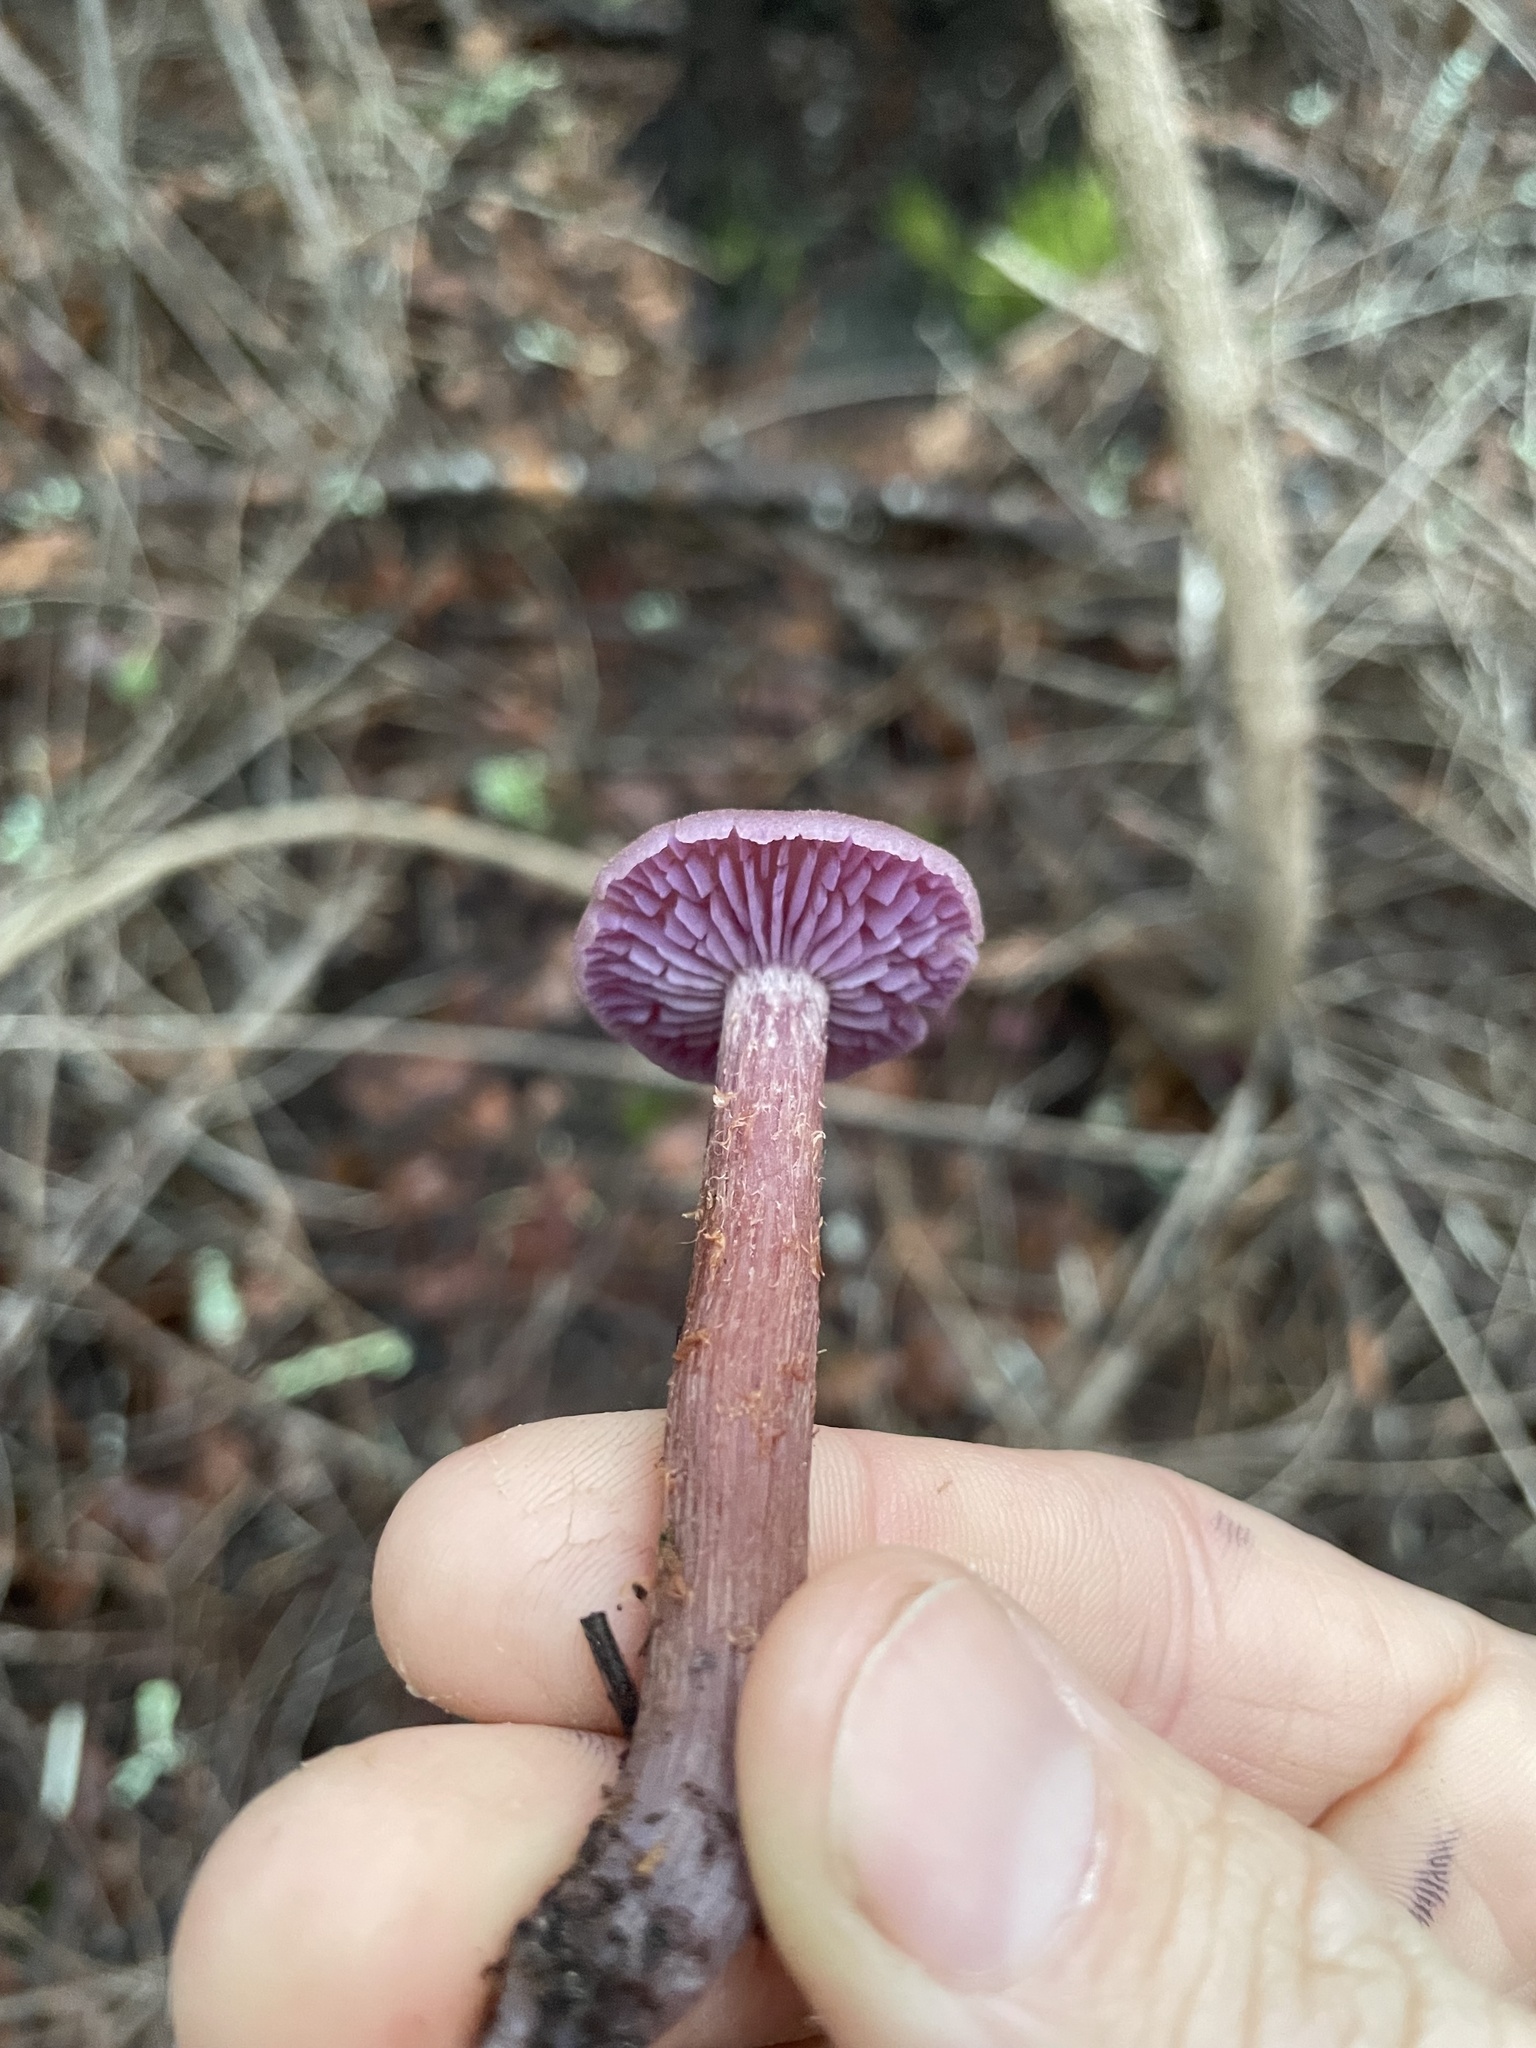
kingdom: Fungi
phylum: Basidiomycota
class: Agaricomycetes
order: Agaricales
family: Hydnangiaceae
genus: Laccaria
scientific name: Laccaria amethysteo-occidentalis
